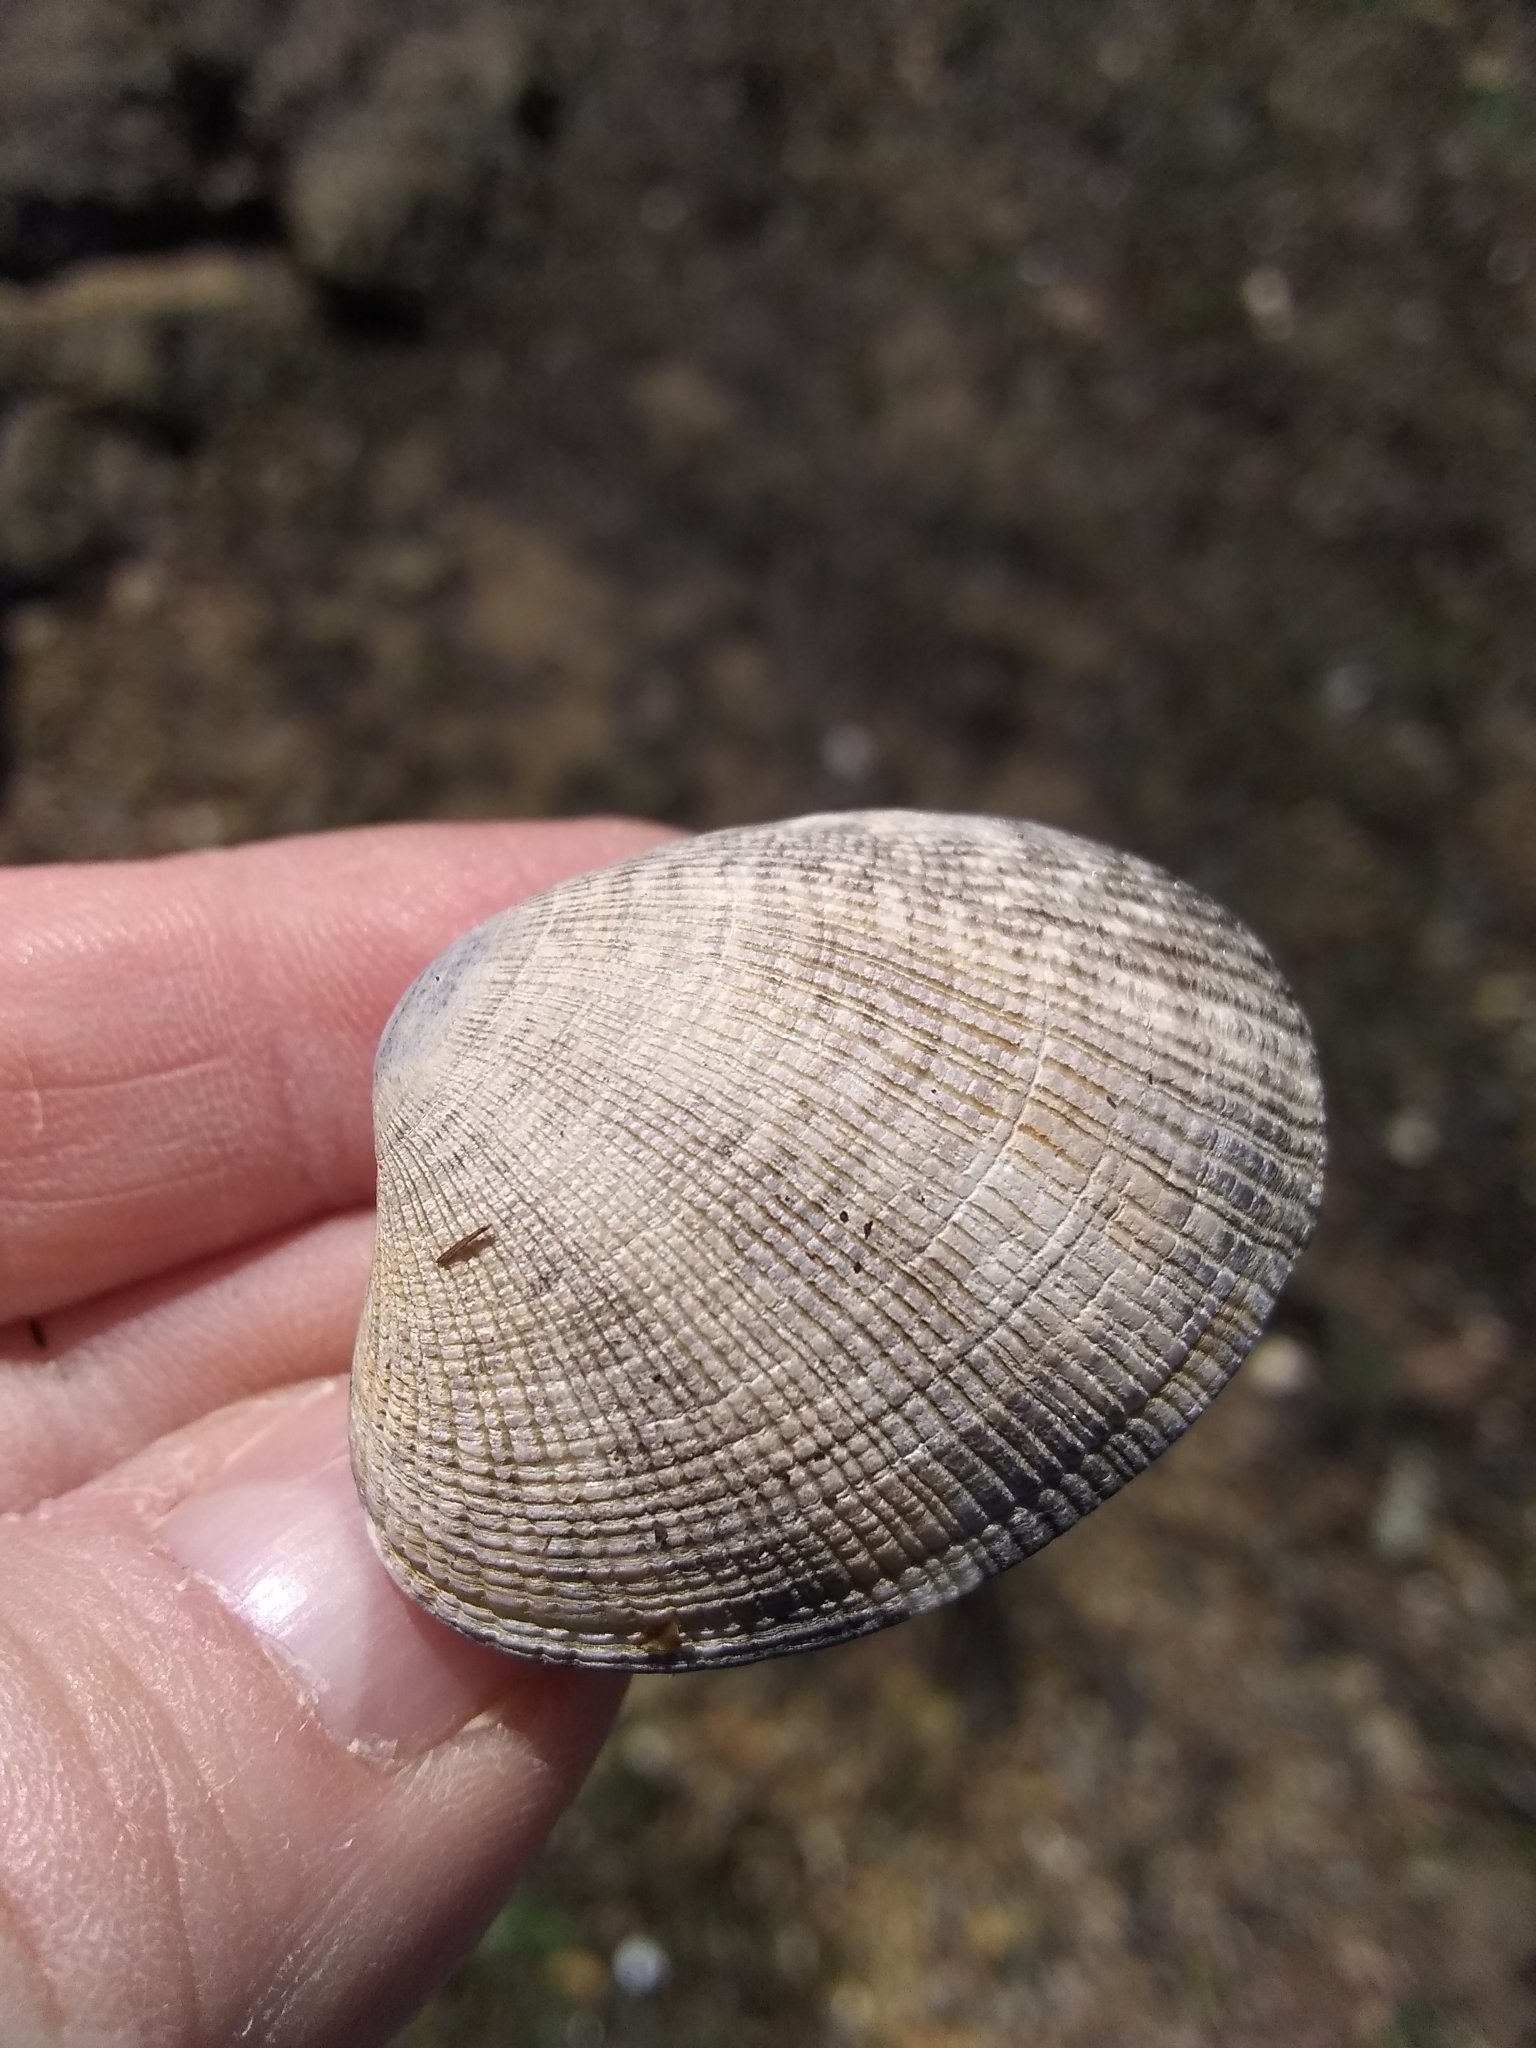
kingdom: Animalia
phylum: Mollusca
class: Bivalvia
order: Venerida
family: Veneridae
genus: Ruditapes
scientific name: Ruditapes philippinarum
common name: Manila clam
